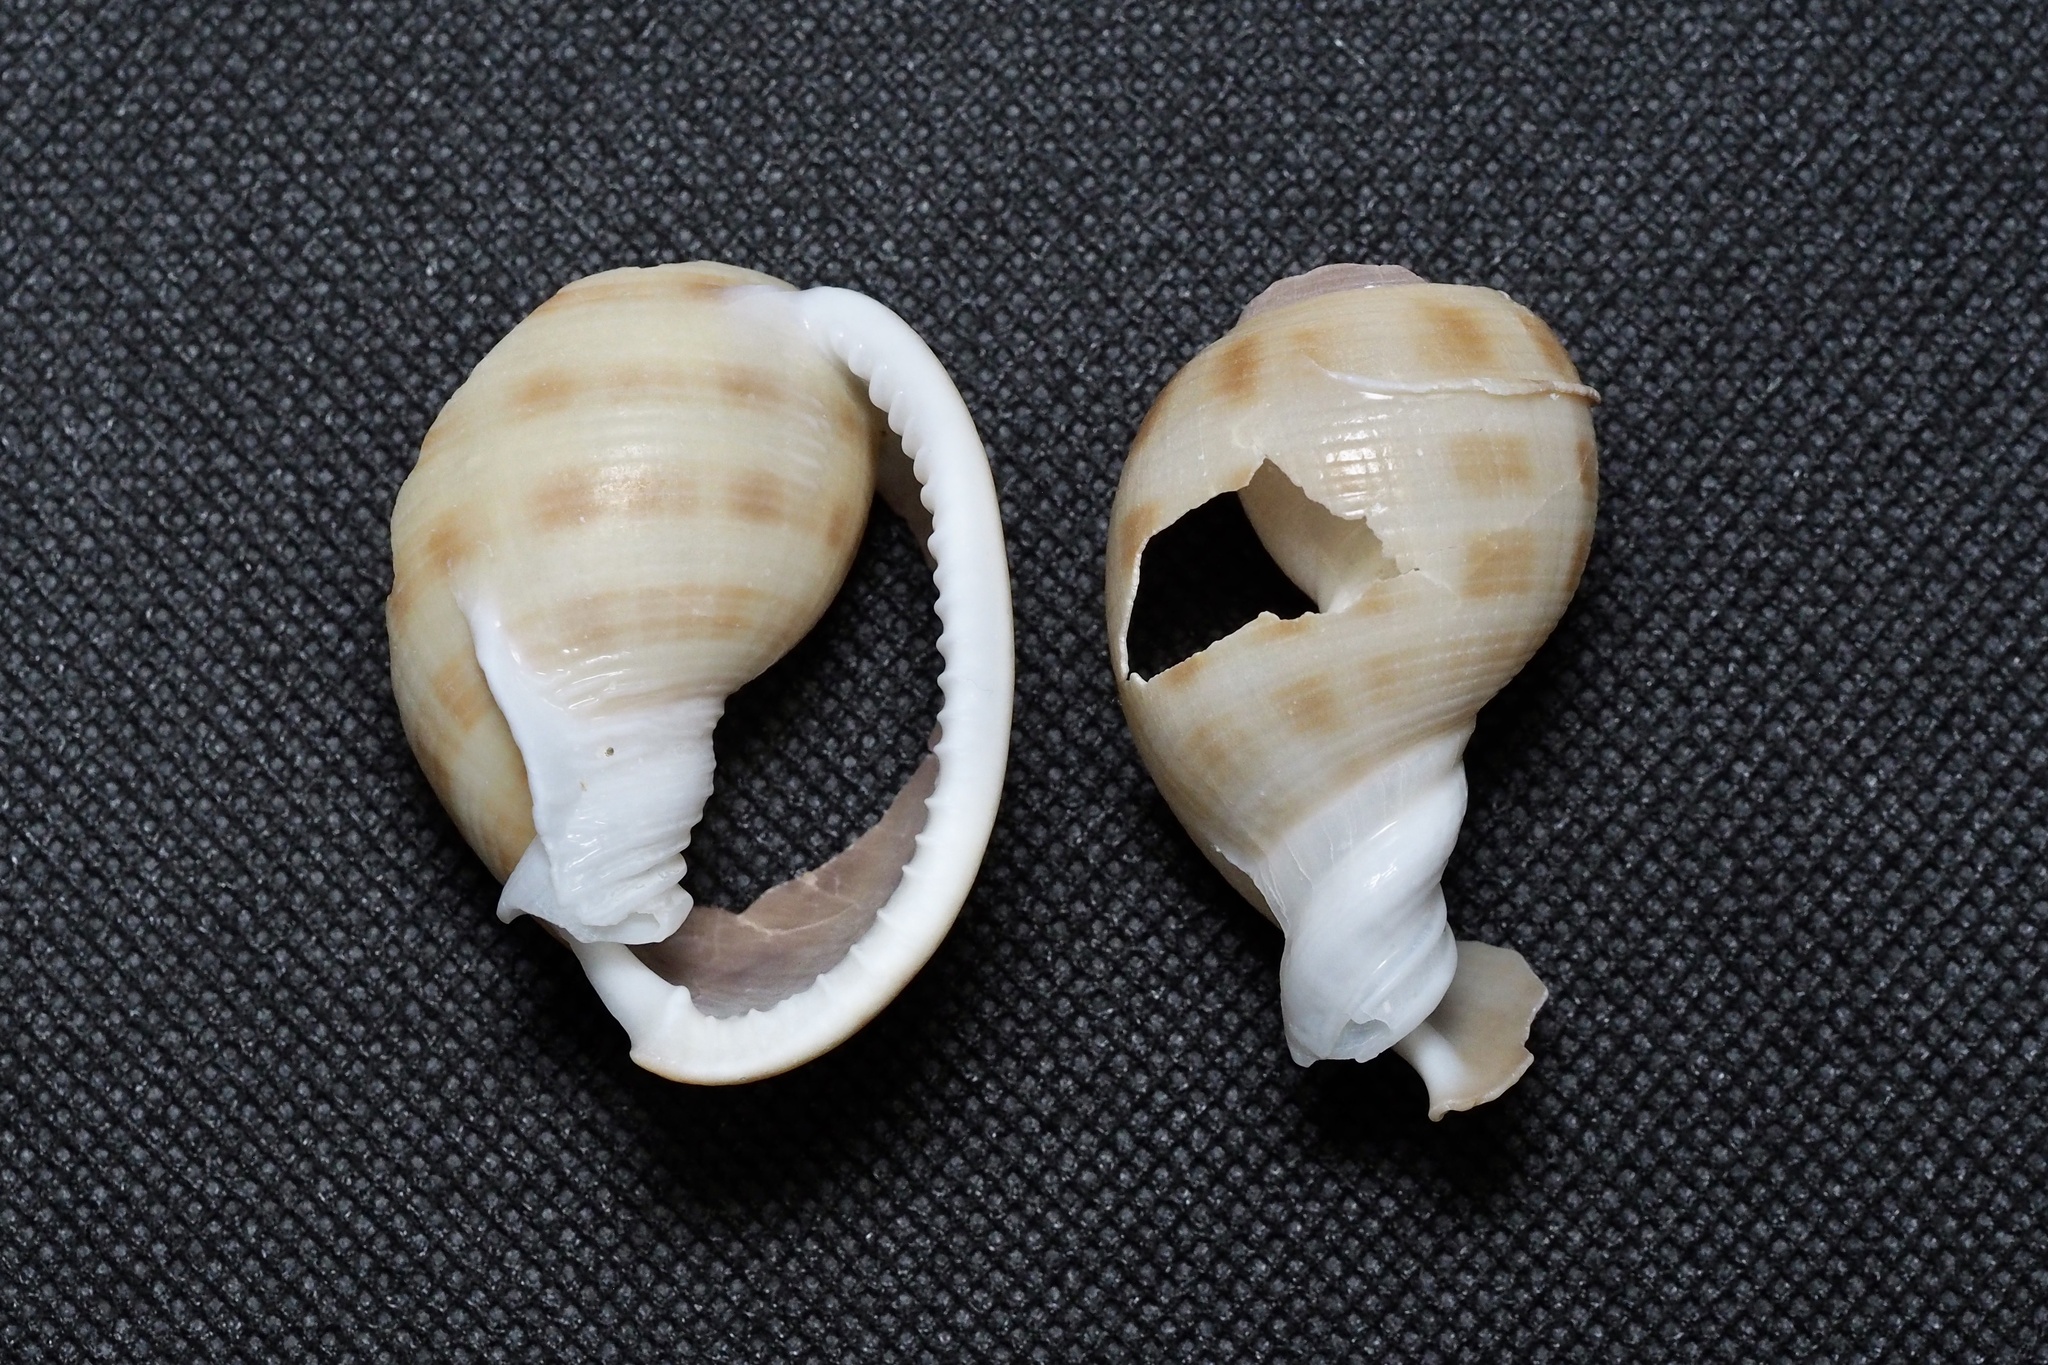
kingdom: Animalia
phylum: Mollusca
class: Gastropoda
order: Littorinimorpha
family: Cassidae
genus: Semicassis
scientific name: Semicassis bisulcata
